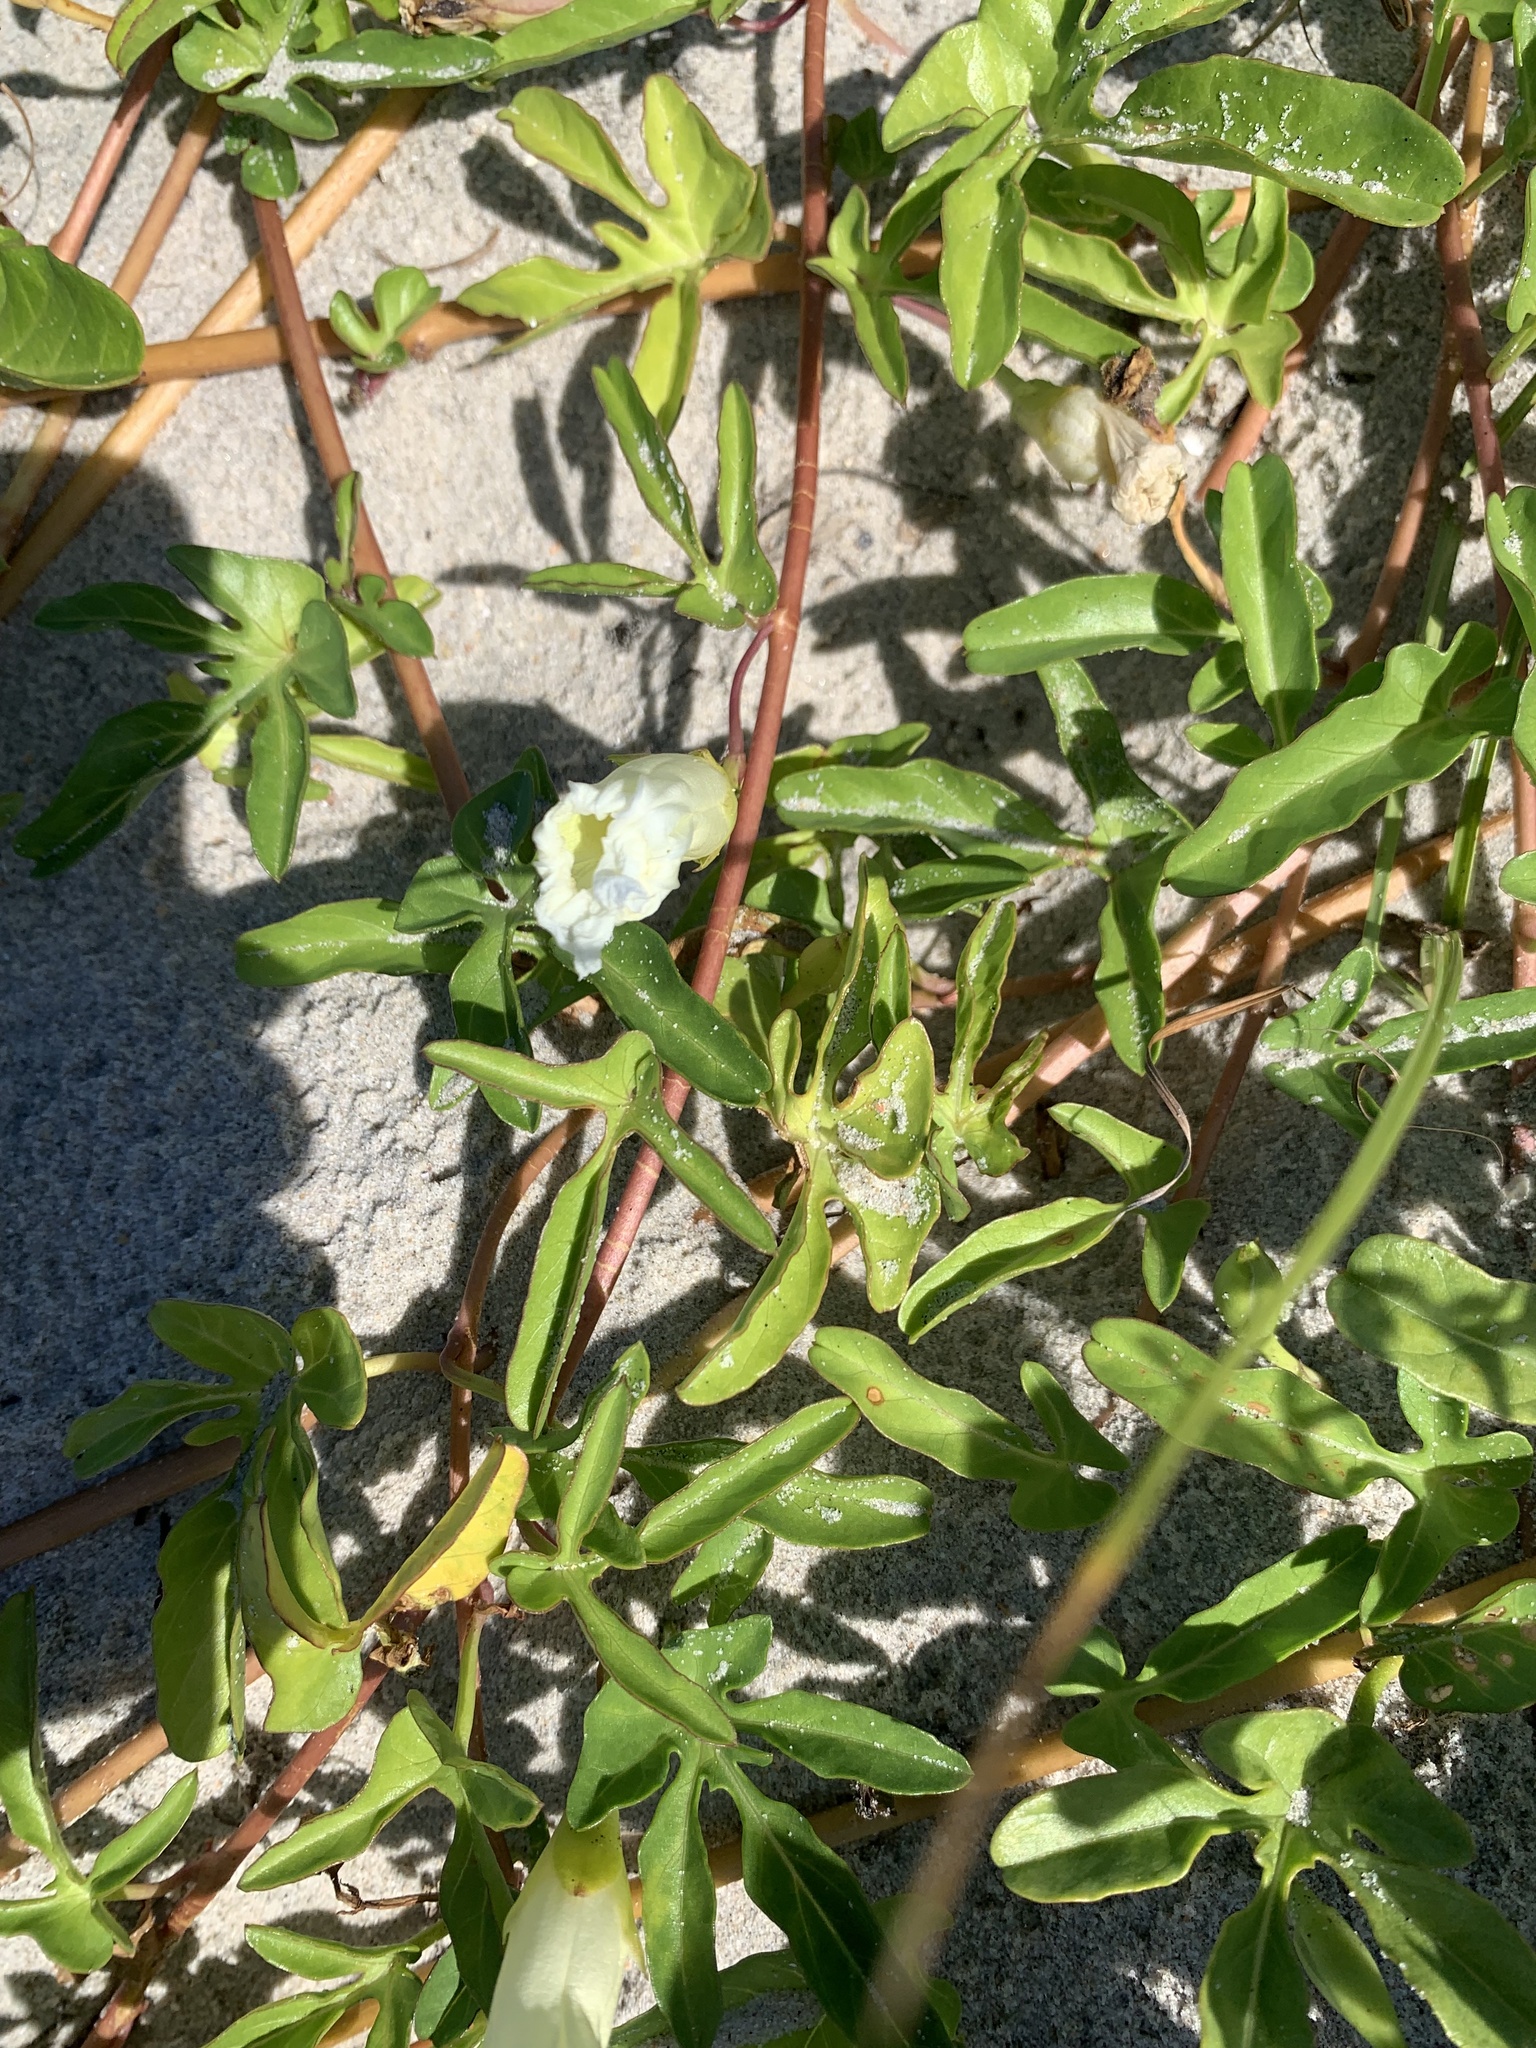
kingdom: Plantae
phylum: Tracheophyta
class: Magnoliopsida
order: Solanales
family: Convolvulaceae
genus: Ipomoea
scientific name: Ipomoea imperati
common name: Fiddle-leaf morning-glory
